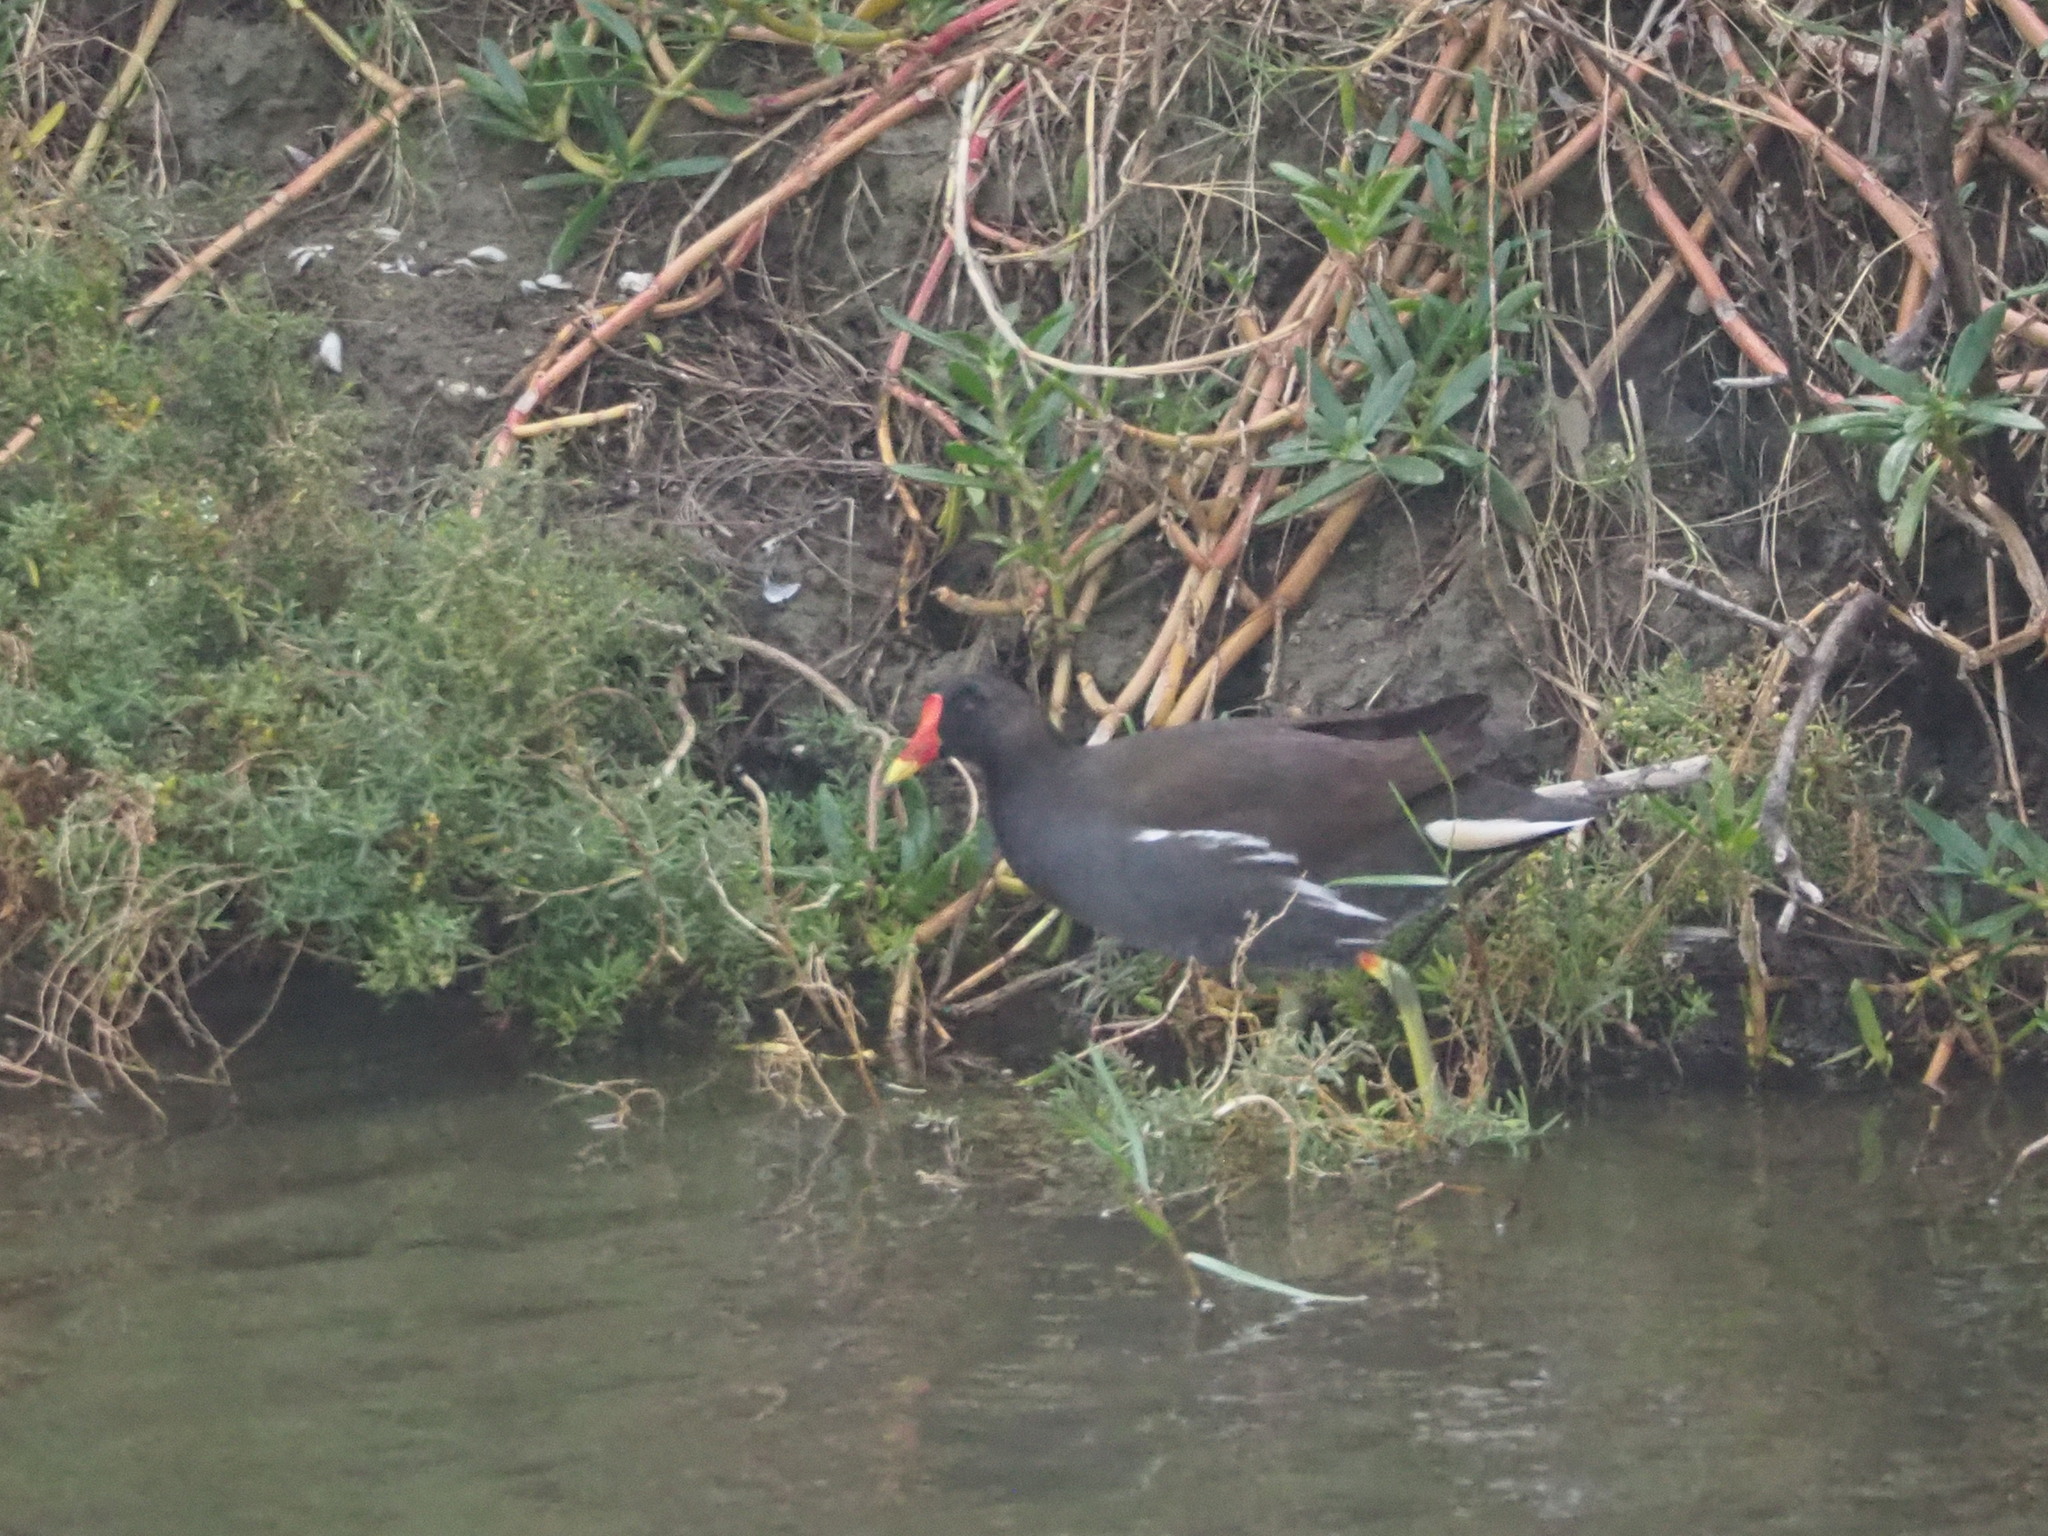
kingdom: Animalia
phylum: Chordata
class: Aves
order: Gruiformes
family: Rallidae
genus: Gallinula
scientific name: Gallinula chloropus
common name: Common moorhen
